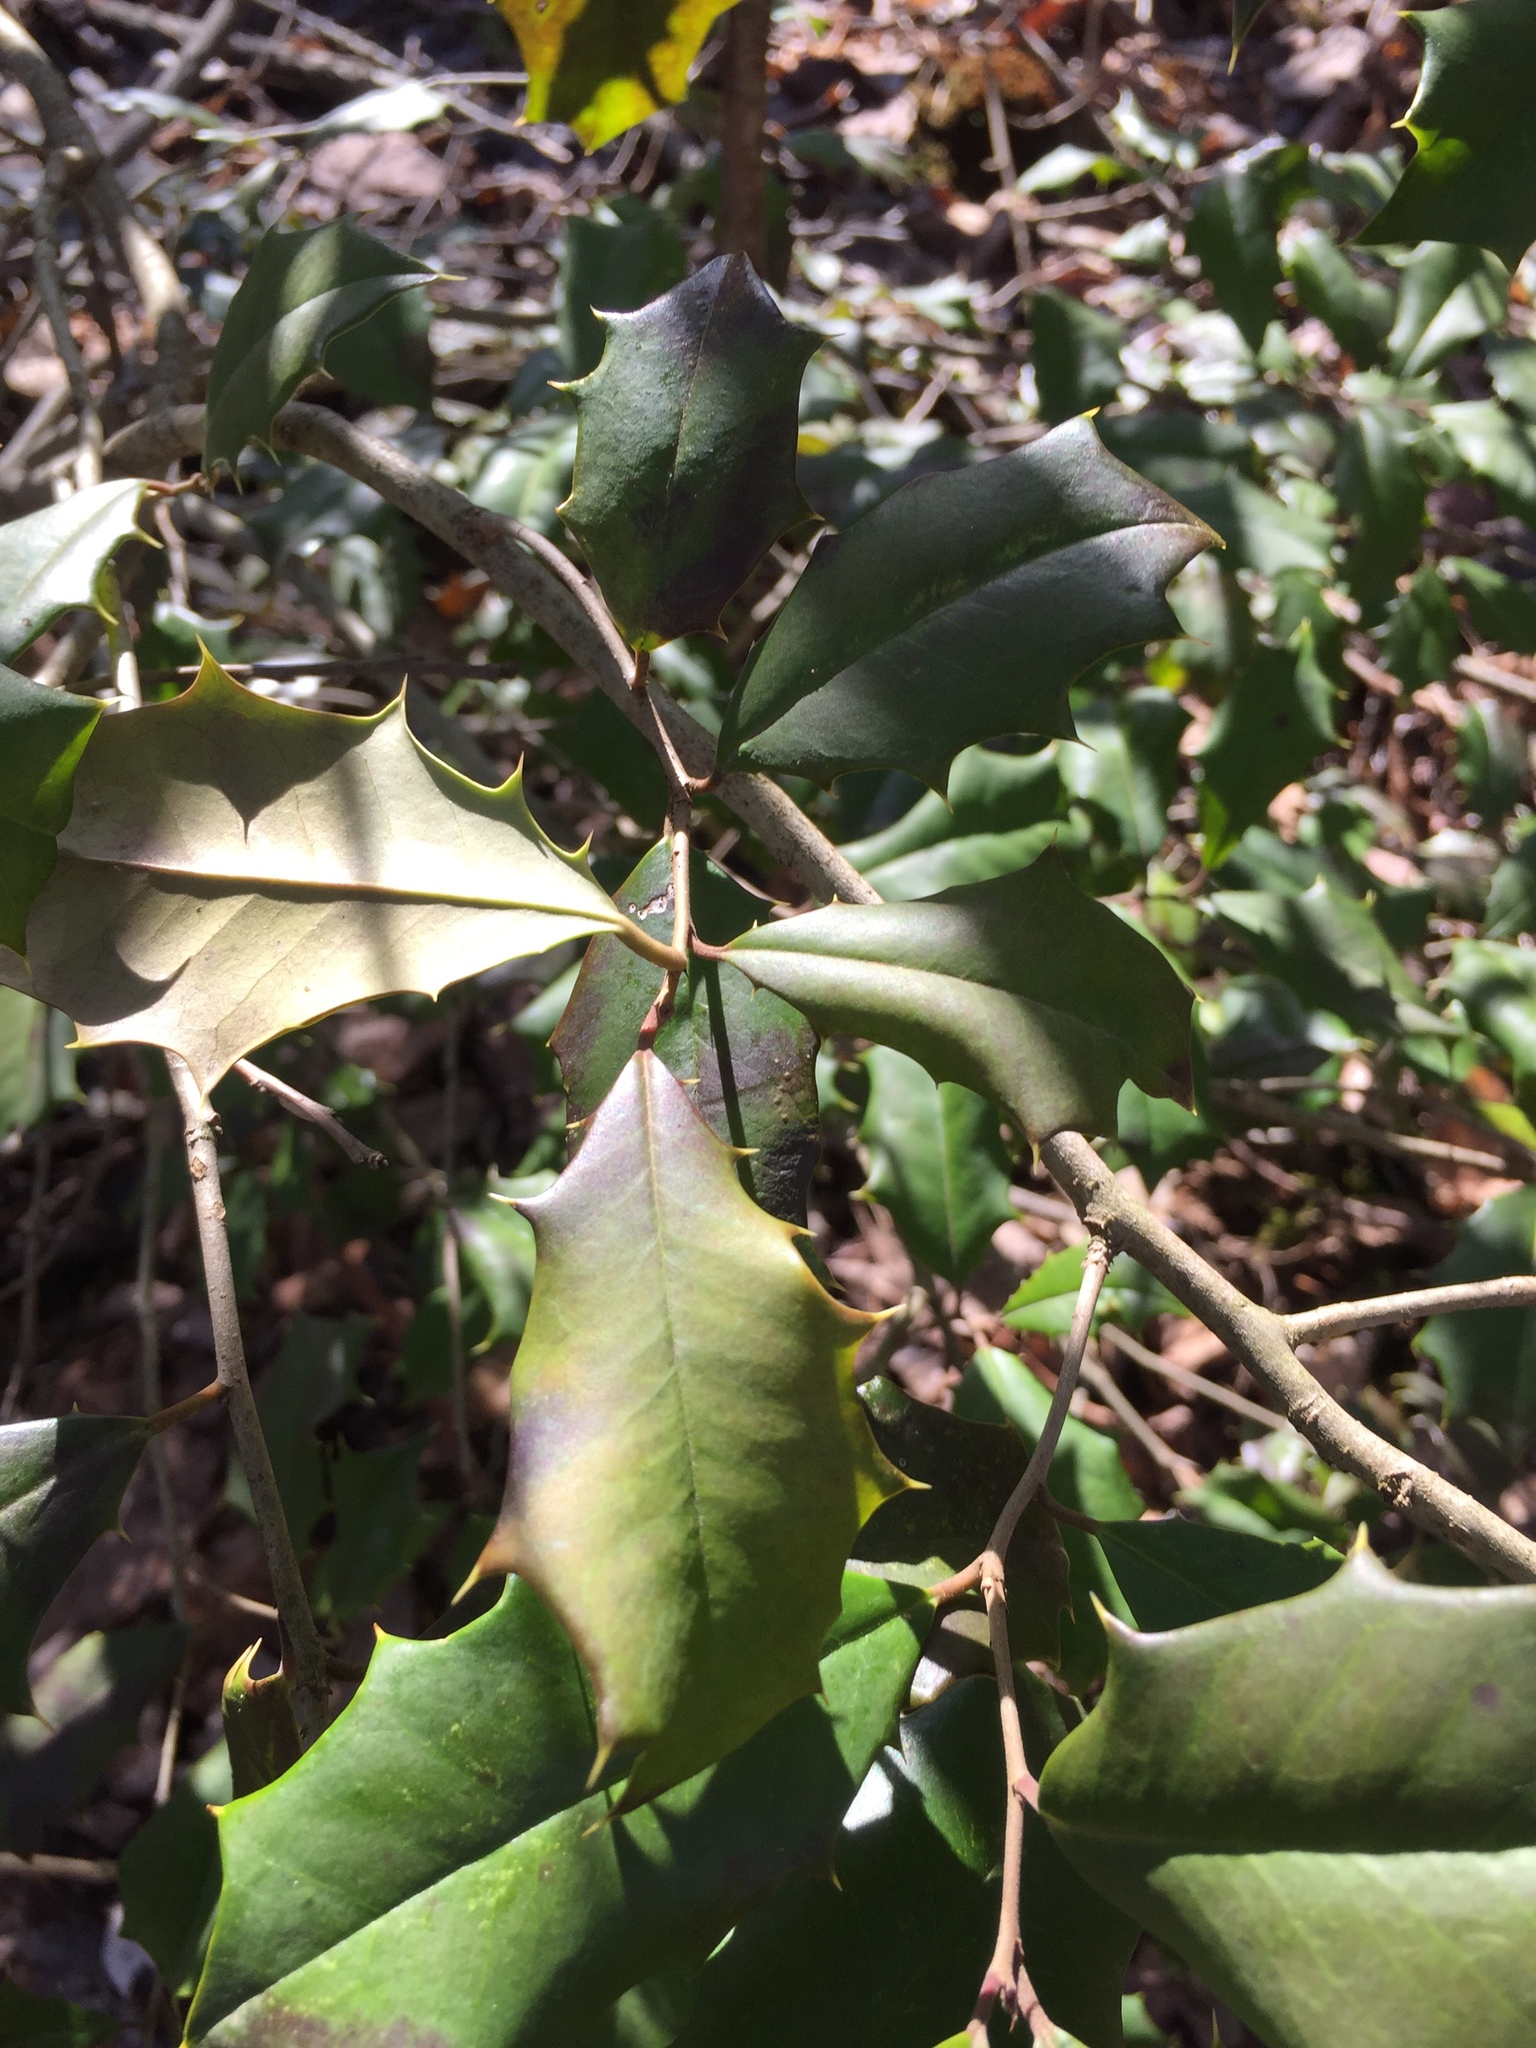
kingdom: Plantae
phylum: Tracheophyta
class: Magnoliopsida
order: Aquifoliales
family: Aquifoliaceae
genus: Ilex
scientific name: Ilex opaca
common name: American holly
